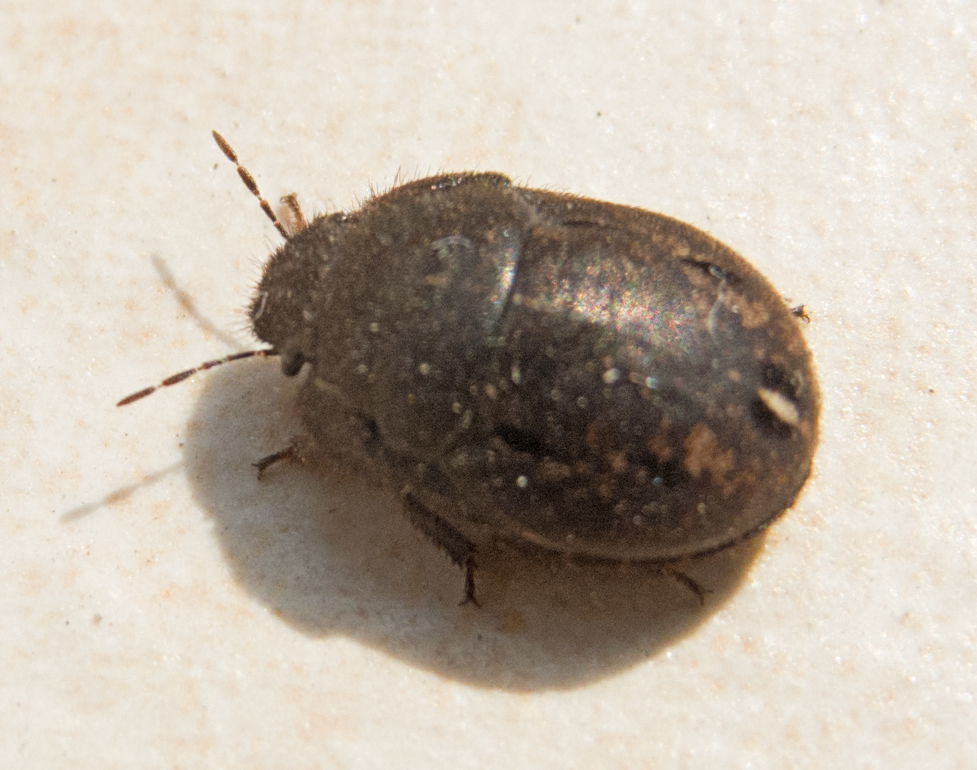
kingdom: Animalia
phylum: Arthropoda
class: Insecta
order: Hemiptera
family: Scutelleridae
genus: Odontoscelis
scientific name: Odontoscelis fuliginosa
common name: Greater streaked shieldbug
